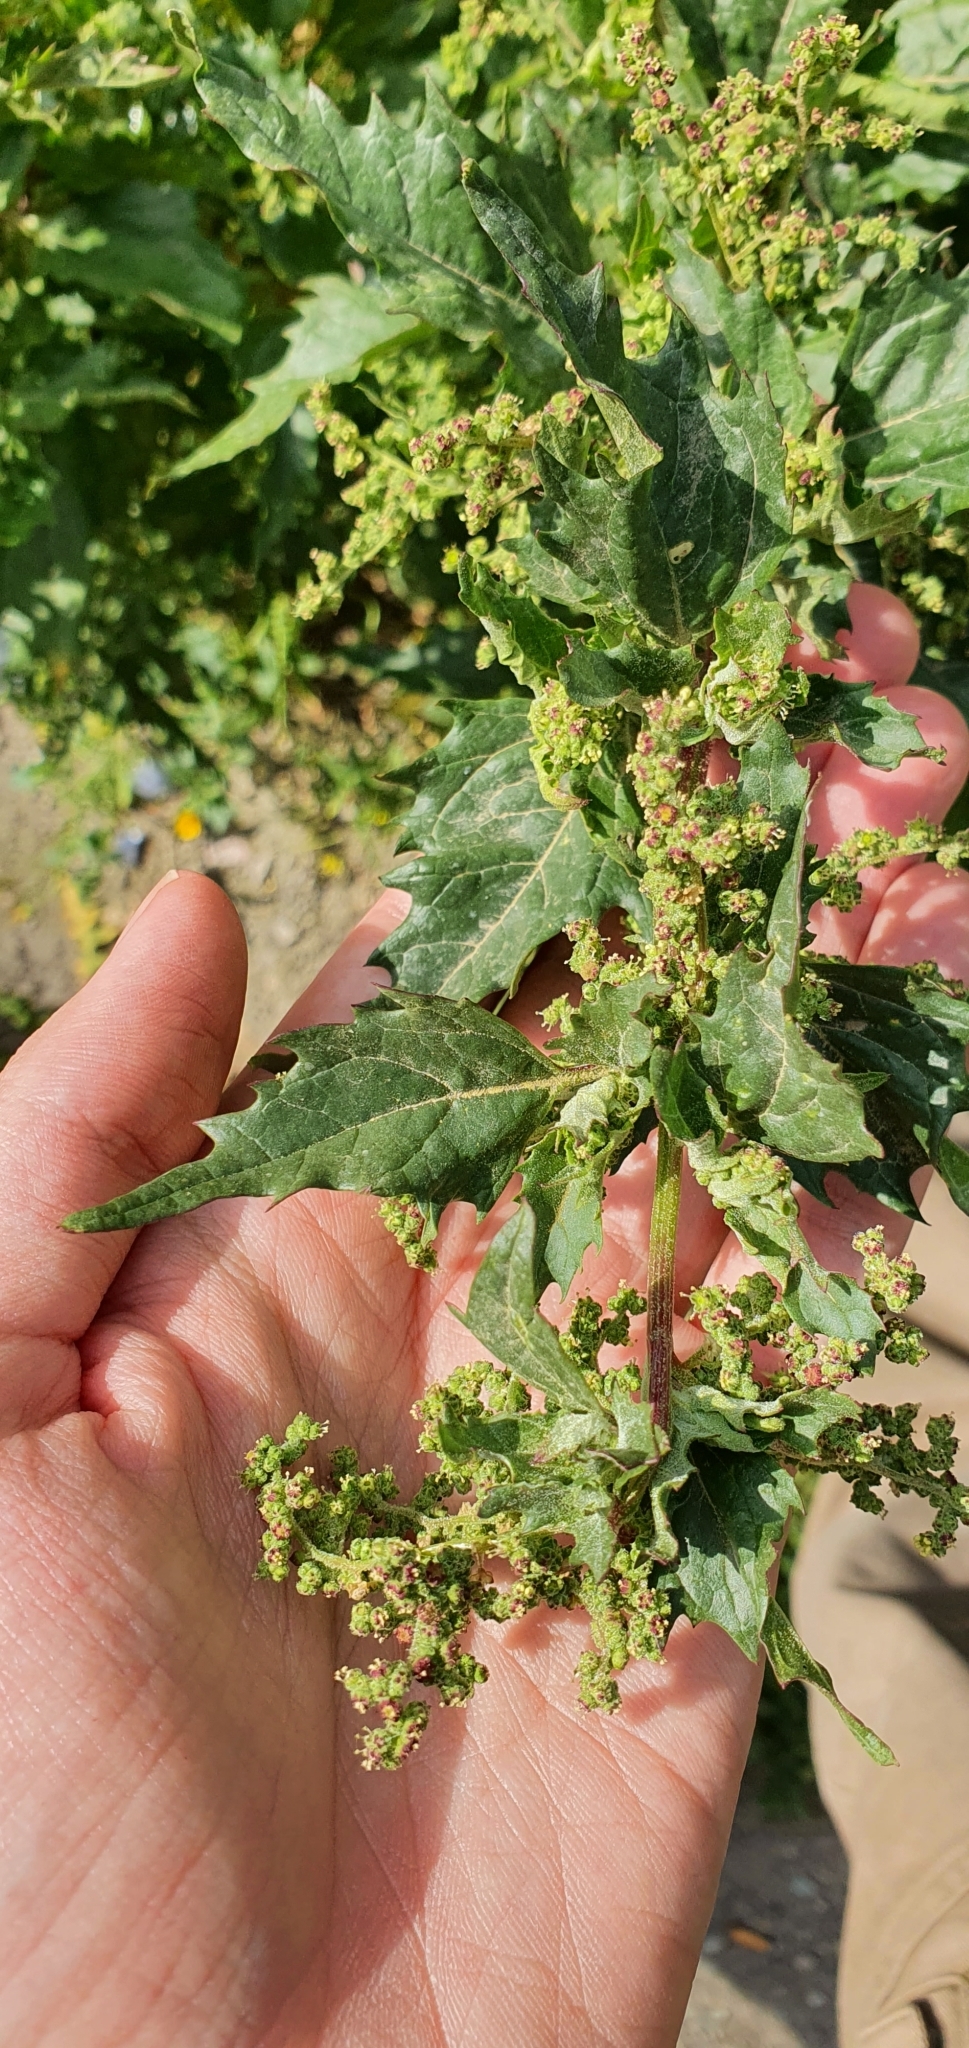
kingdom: Plantae
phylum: Tracheophyta
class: Magnoliopsida
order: Caryophyllales
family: Amaranthaceae
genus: Chenopodiastrum
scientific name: Chenopodiastrum murale
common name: Sowbane
